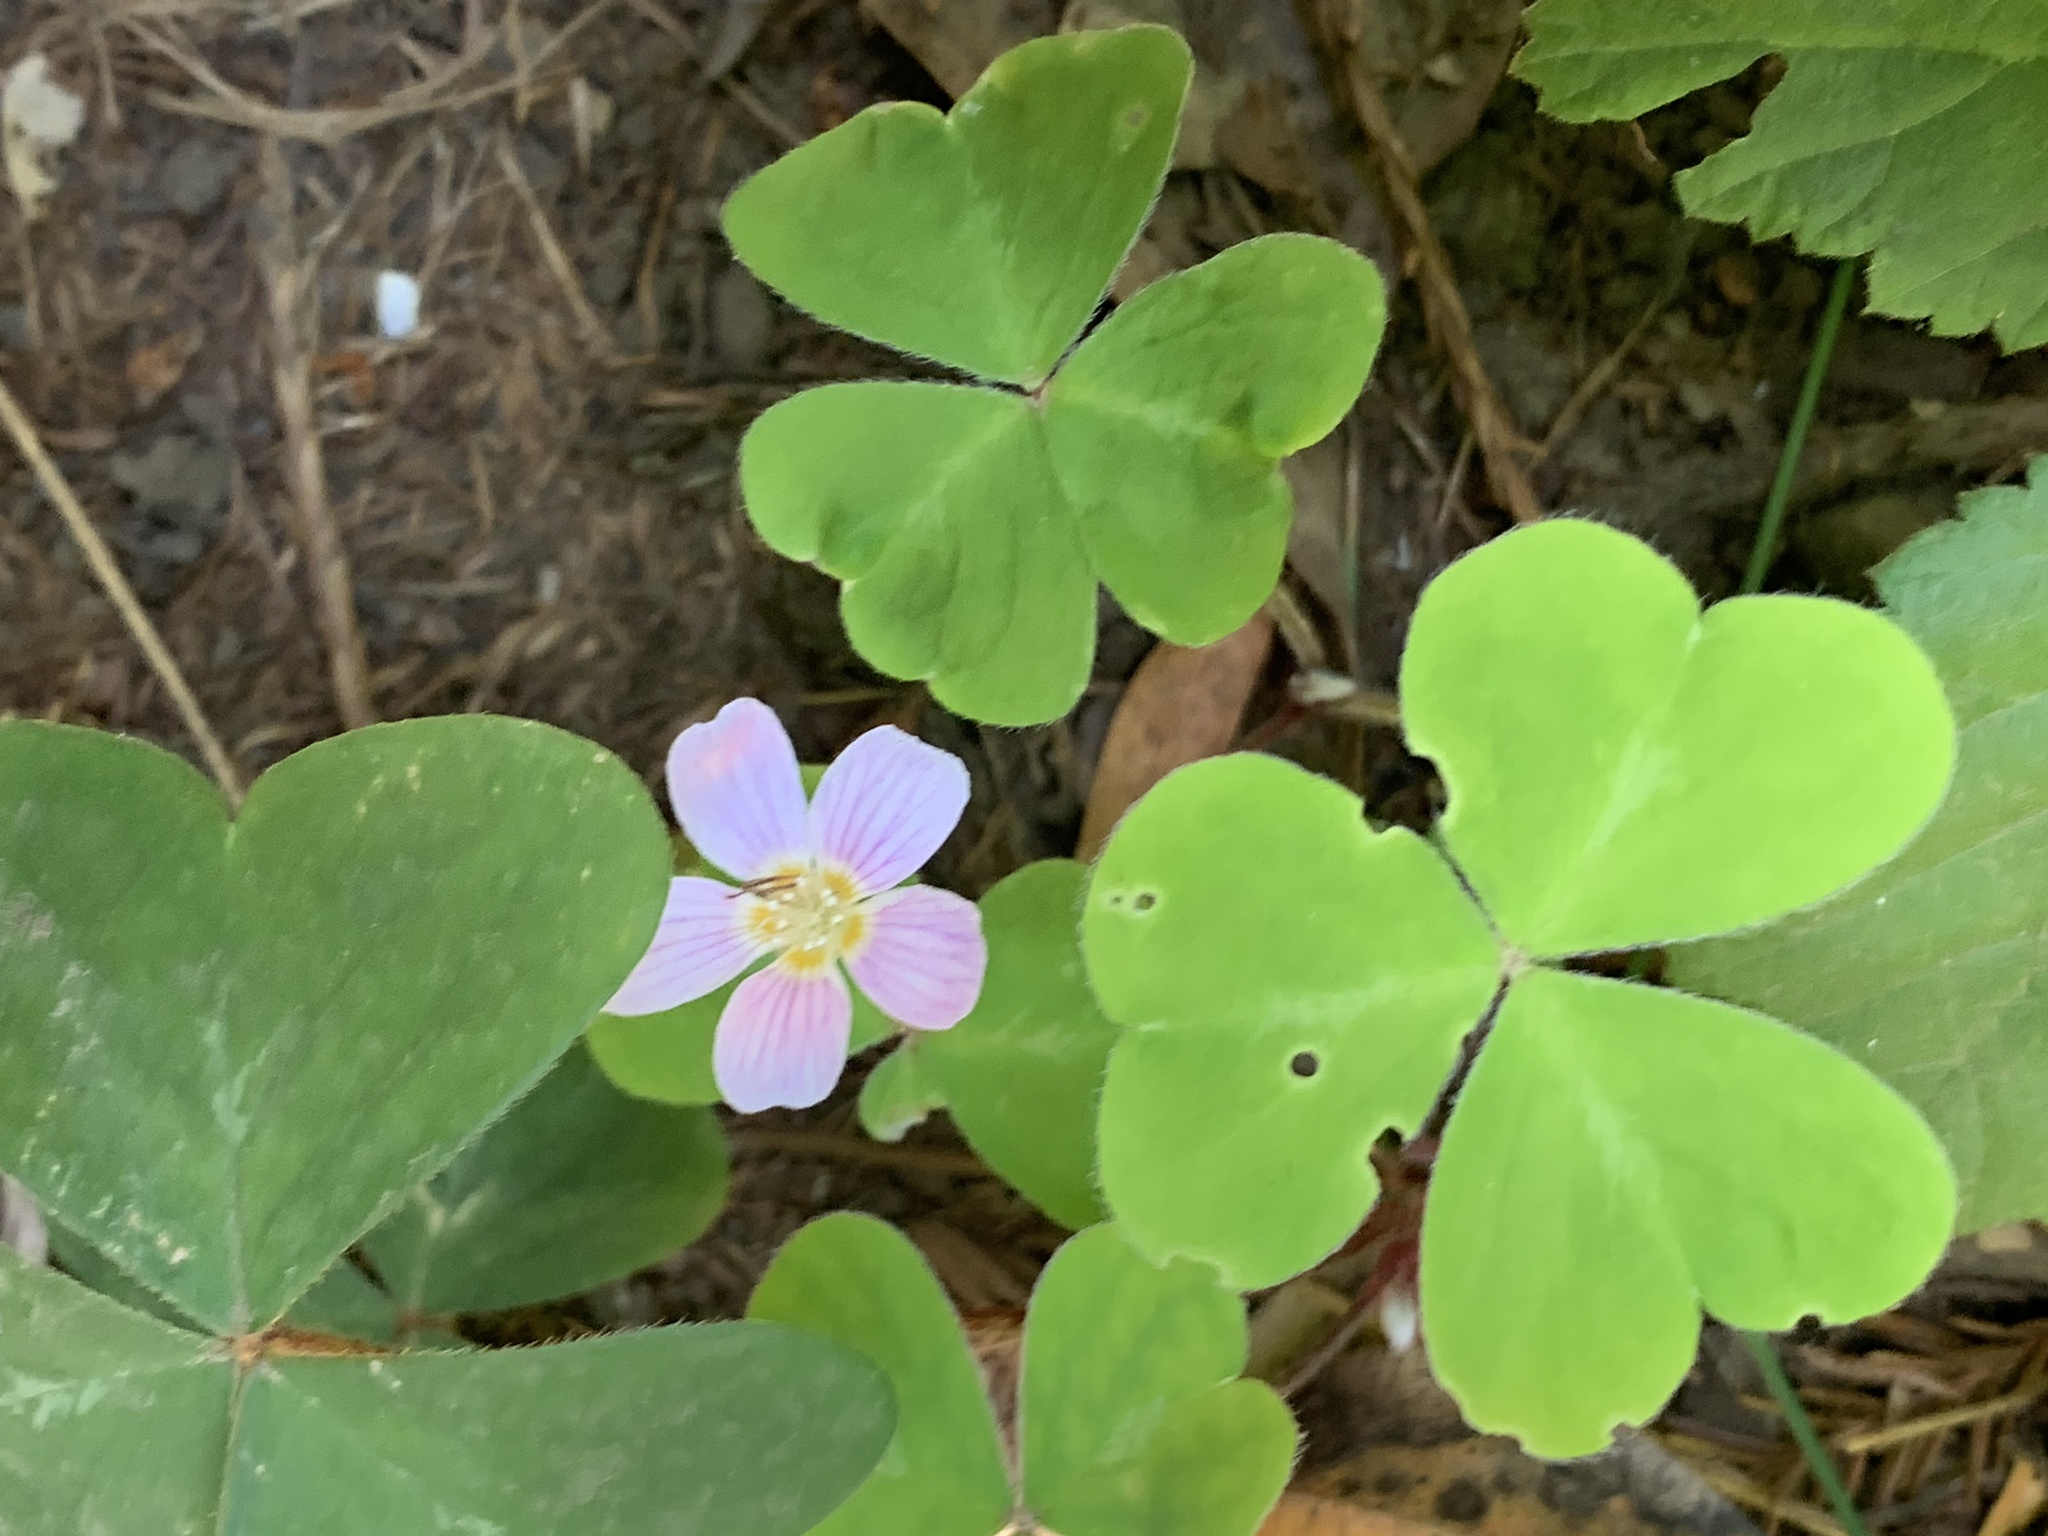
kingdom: Plantae
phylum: Tracheophyta
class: Magnoliopsida
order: Oxalidales
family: Oxalidaceae
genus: Oxalis
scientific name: Oxalis oregana
